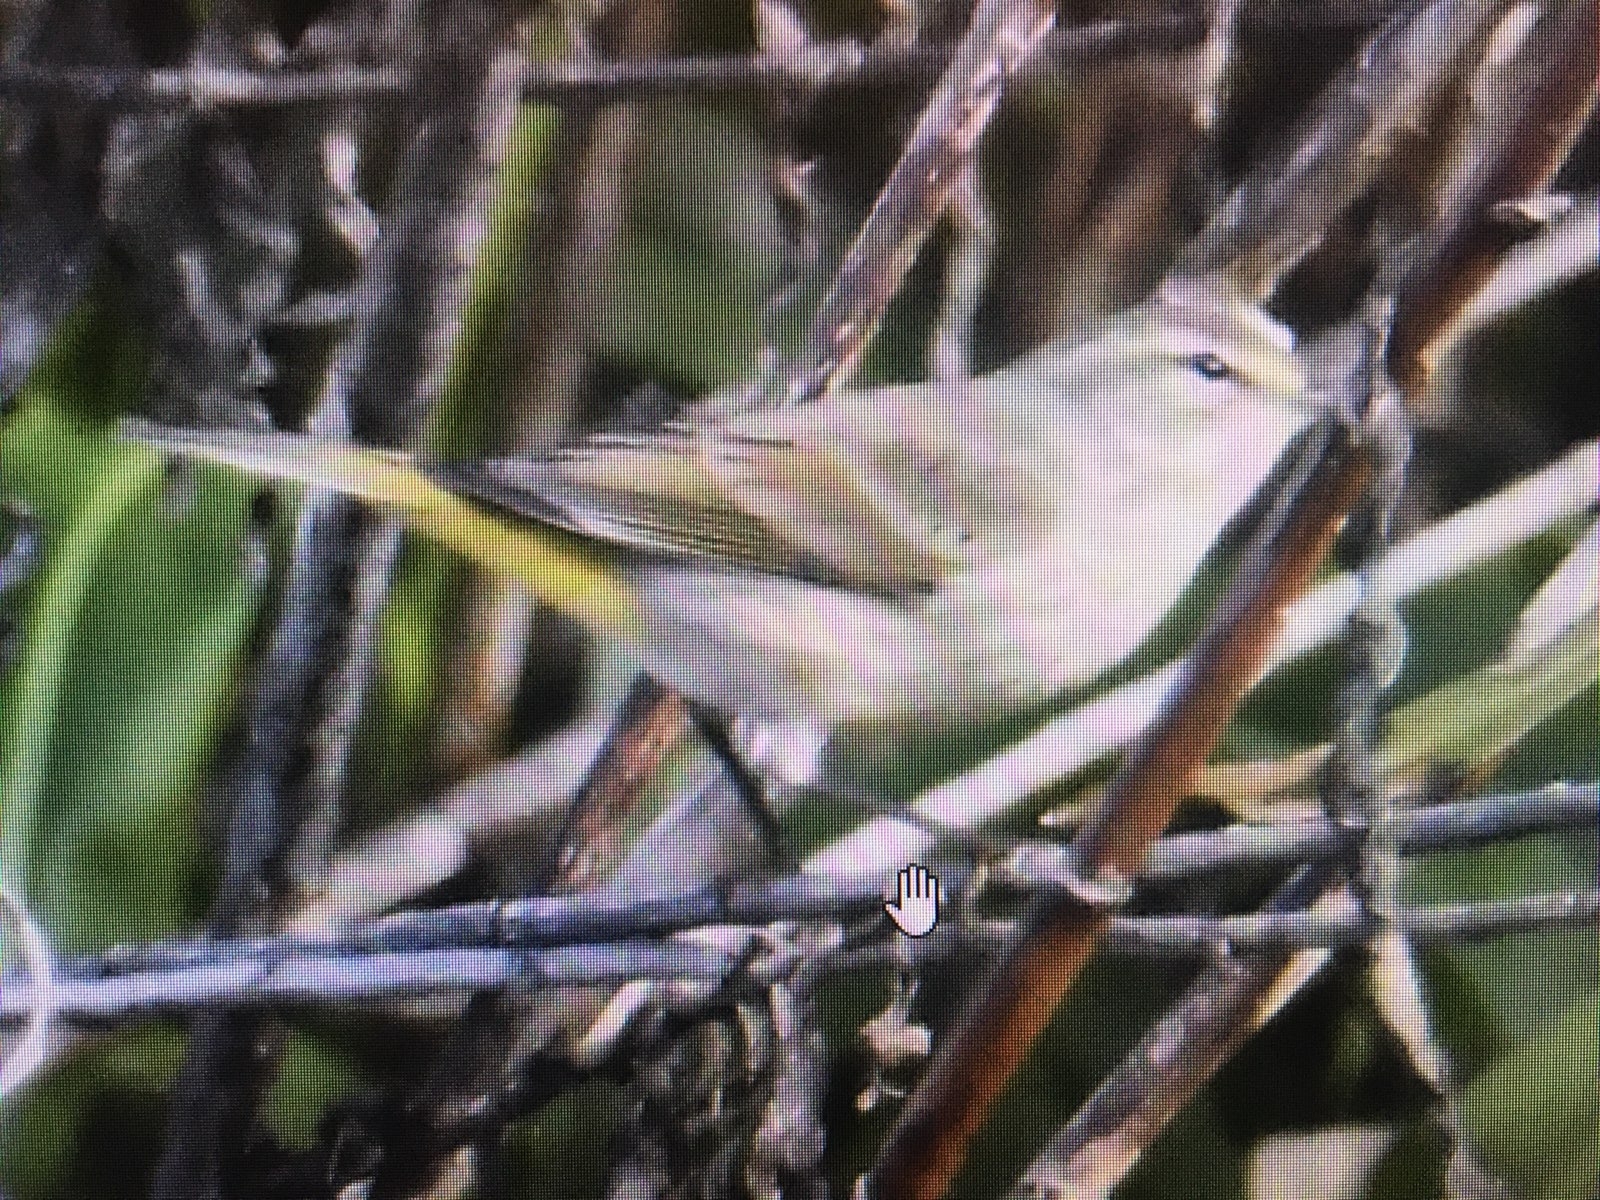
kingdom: Animalia
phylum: Chordata
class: Aves
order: Passeriformes
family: Parulidae
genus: Setophaga
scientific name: Setophaga palmarum
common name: Palm warbler
